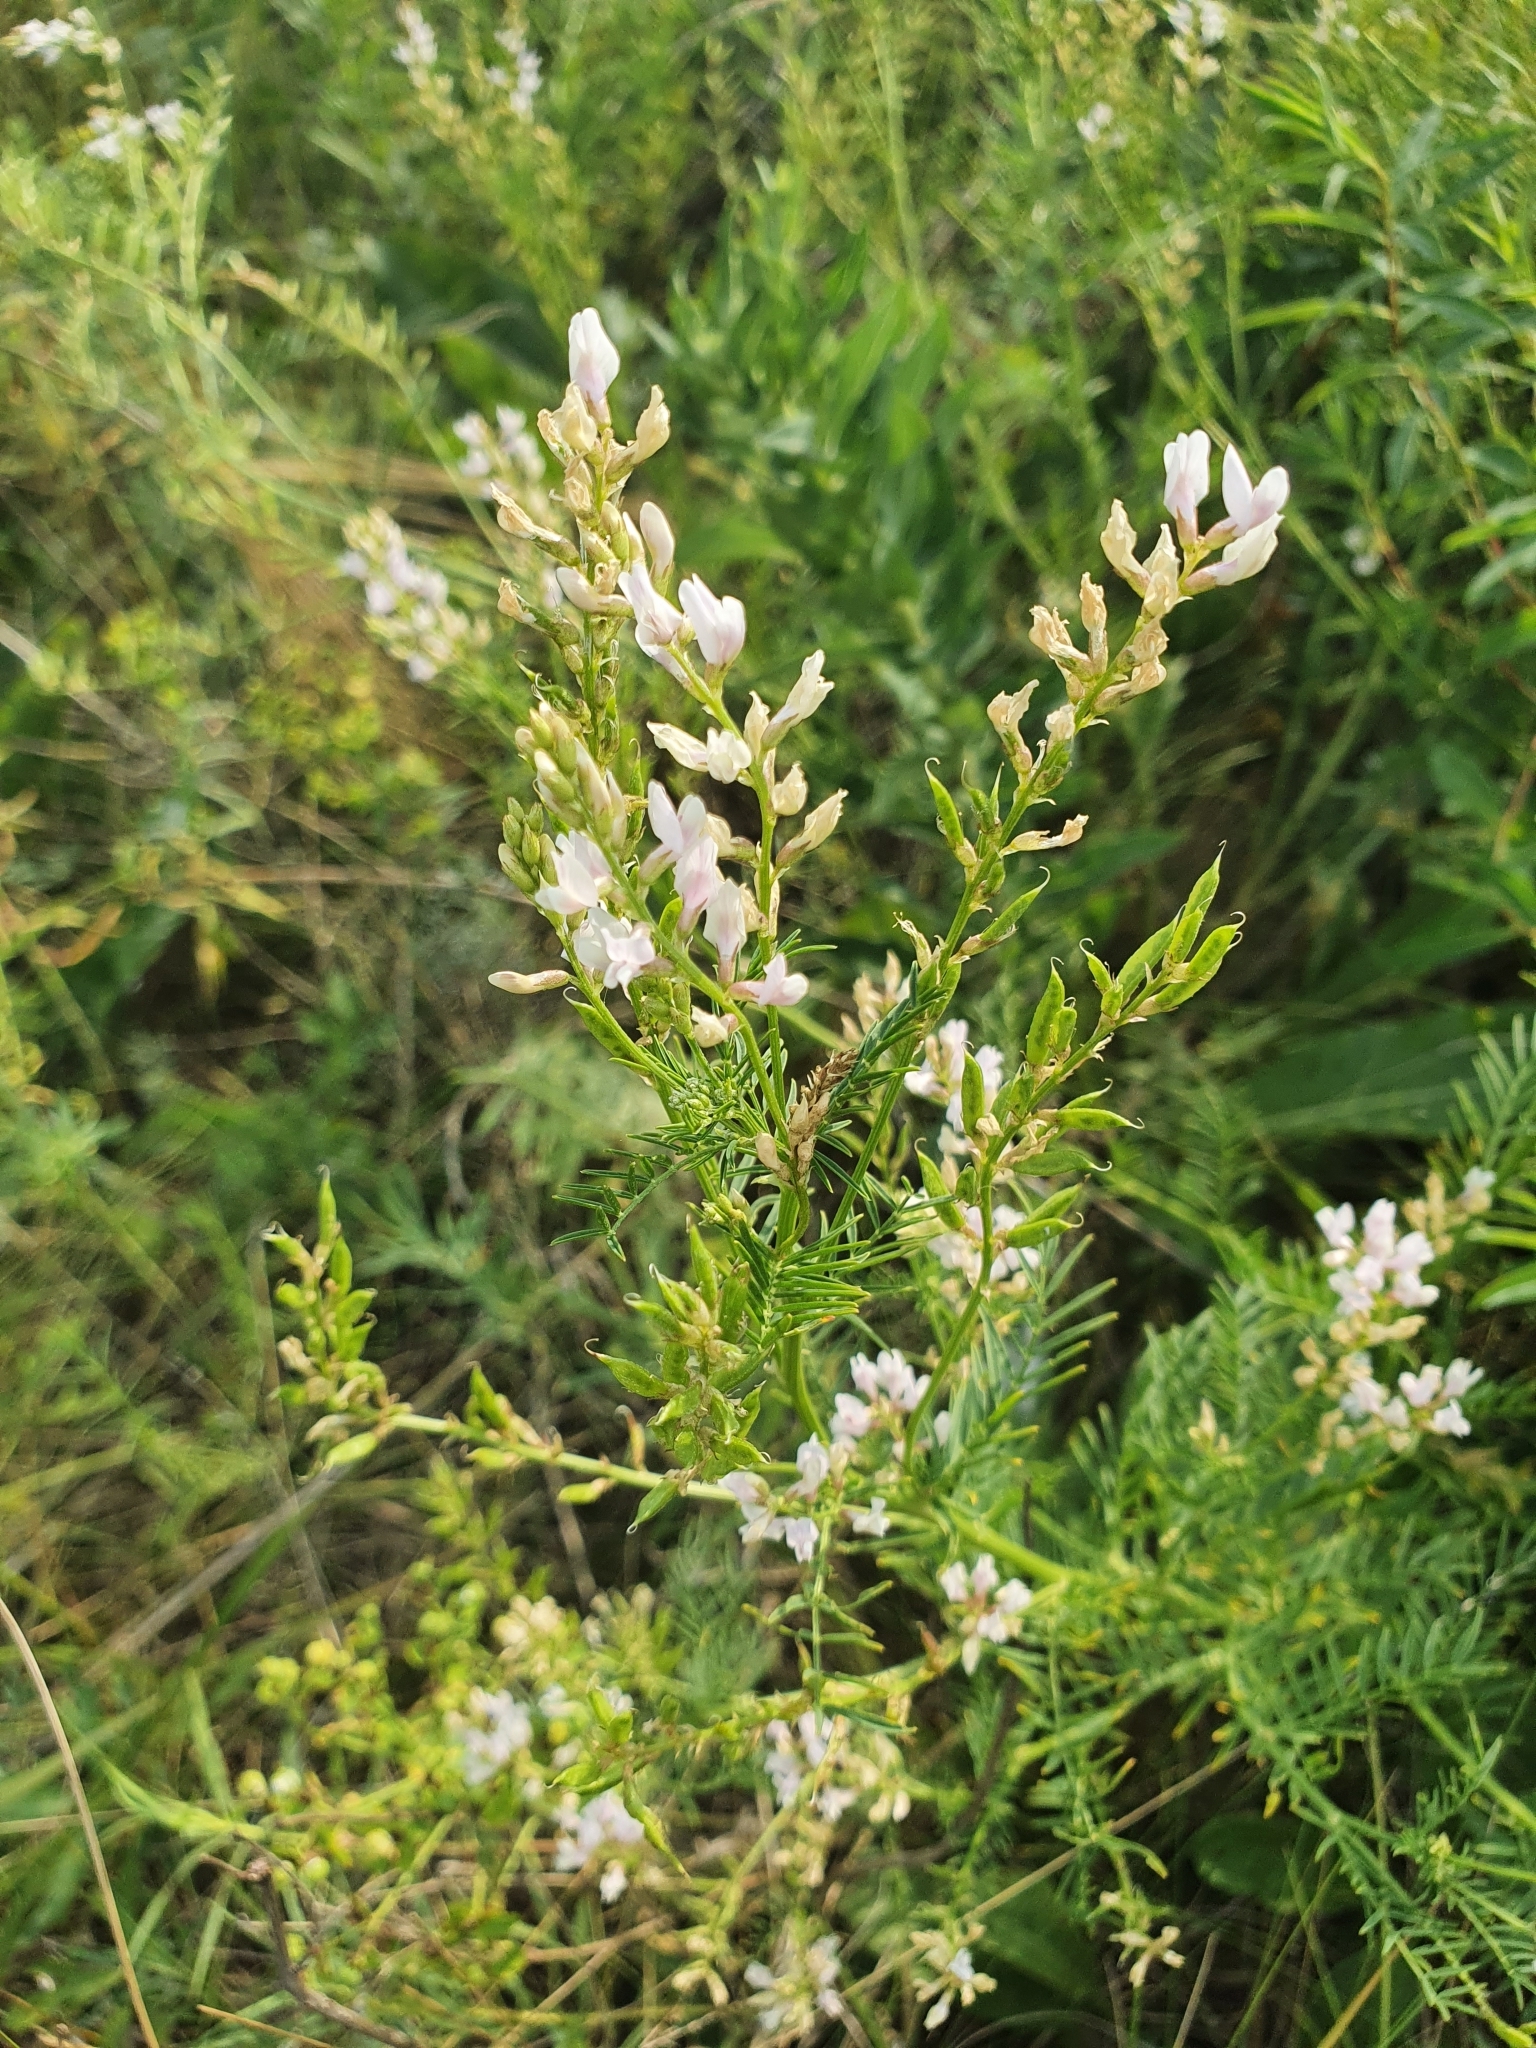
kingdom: Plantae
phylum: Tracheophyta
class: Magnoliopsida
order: Fabales
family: Fabaceae
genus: Astragalus
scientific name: Astragalus sulcatus
